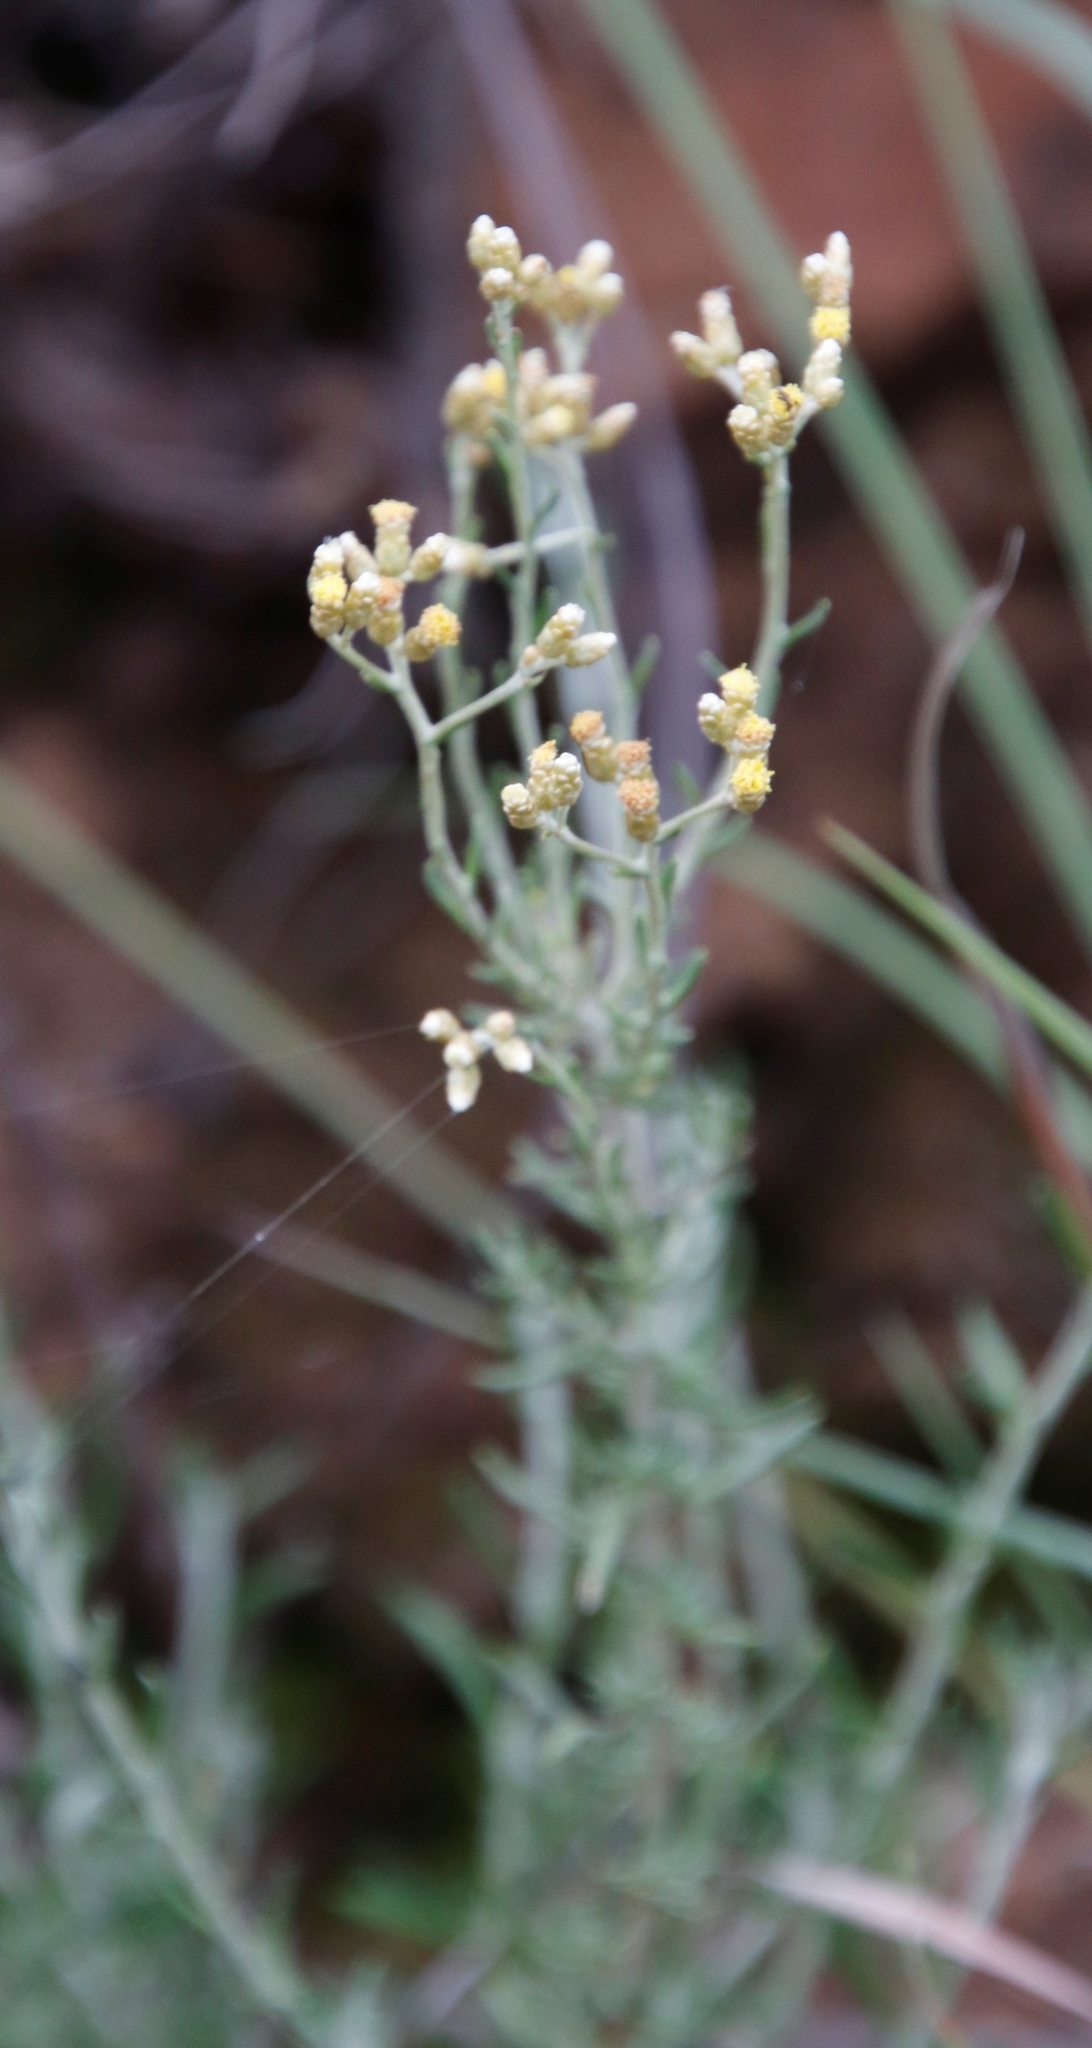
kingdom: Plantae
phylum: Tracheophyta
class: Magnoliopsida
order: Asterales
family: Asteraceae
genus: Helichrysum
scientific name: Helichrysum rosum
